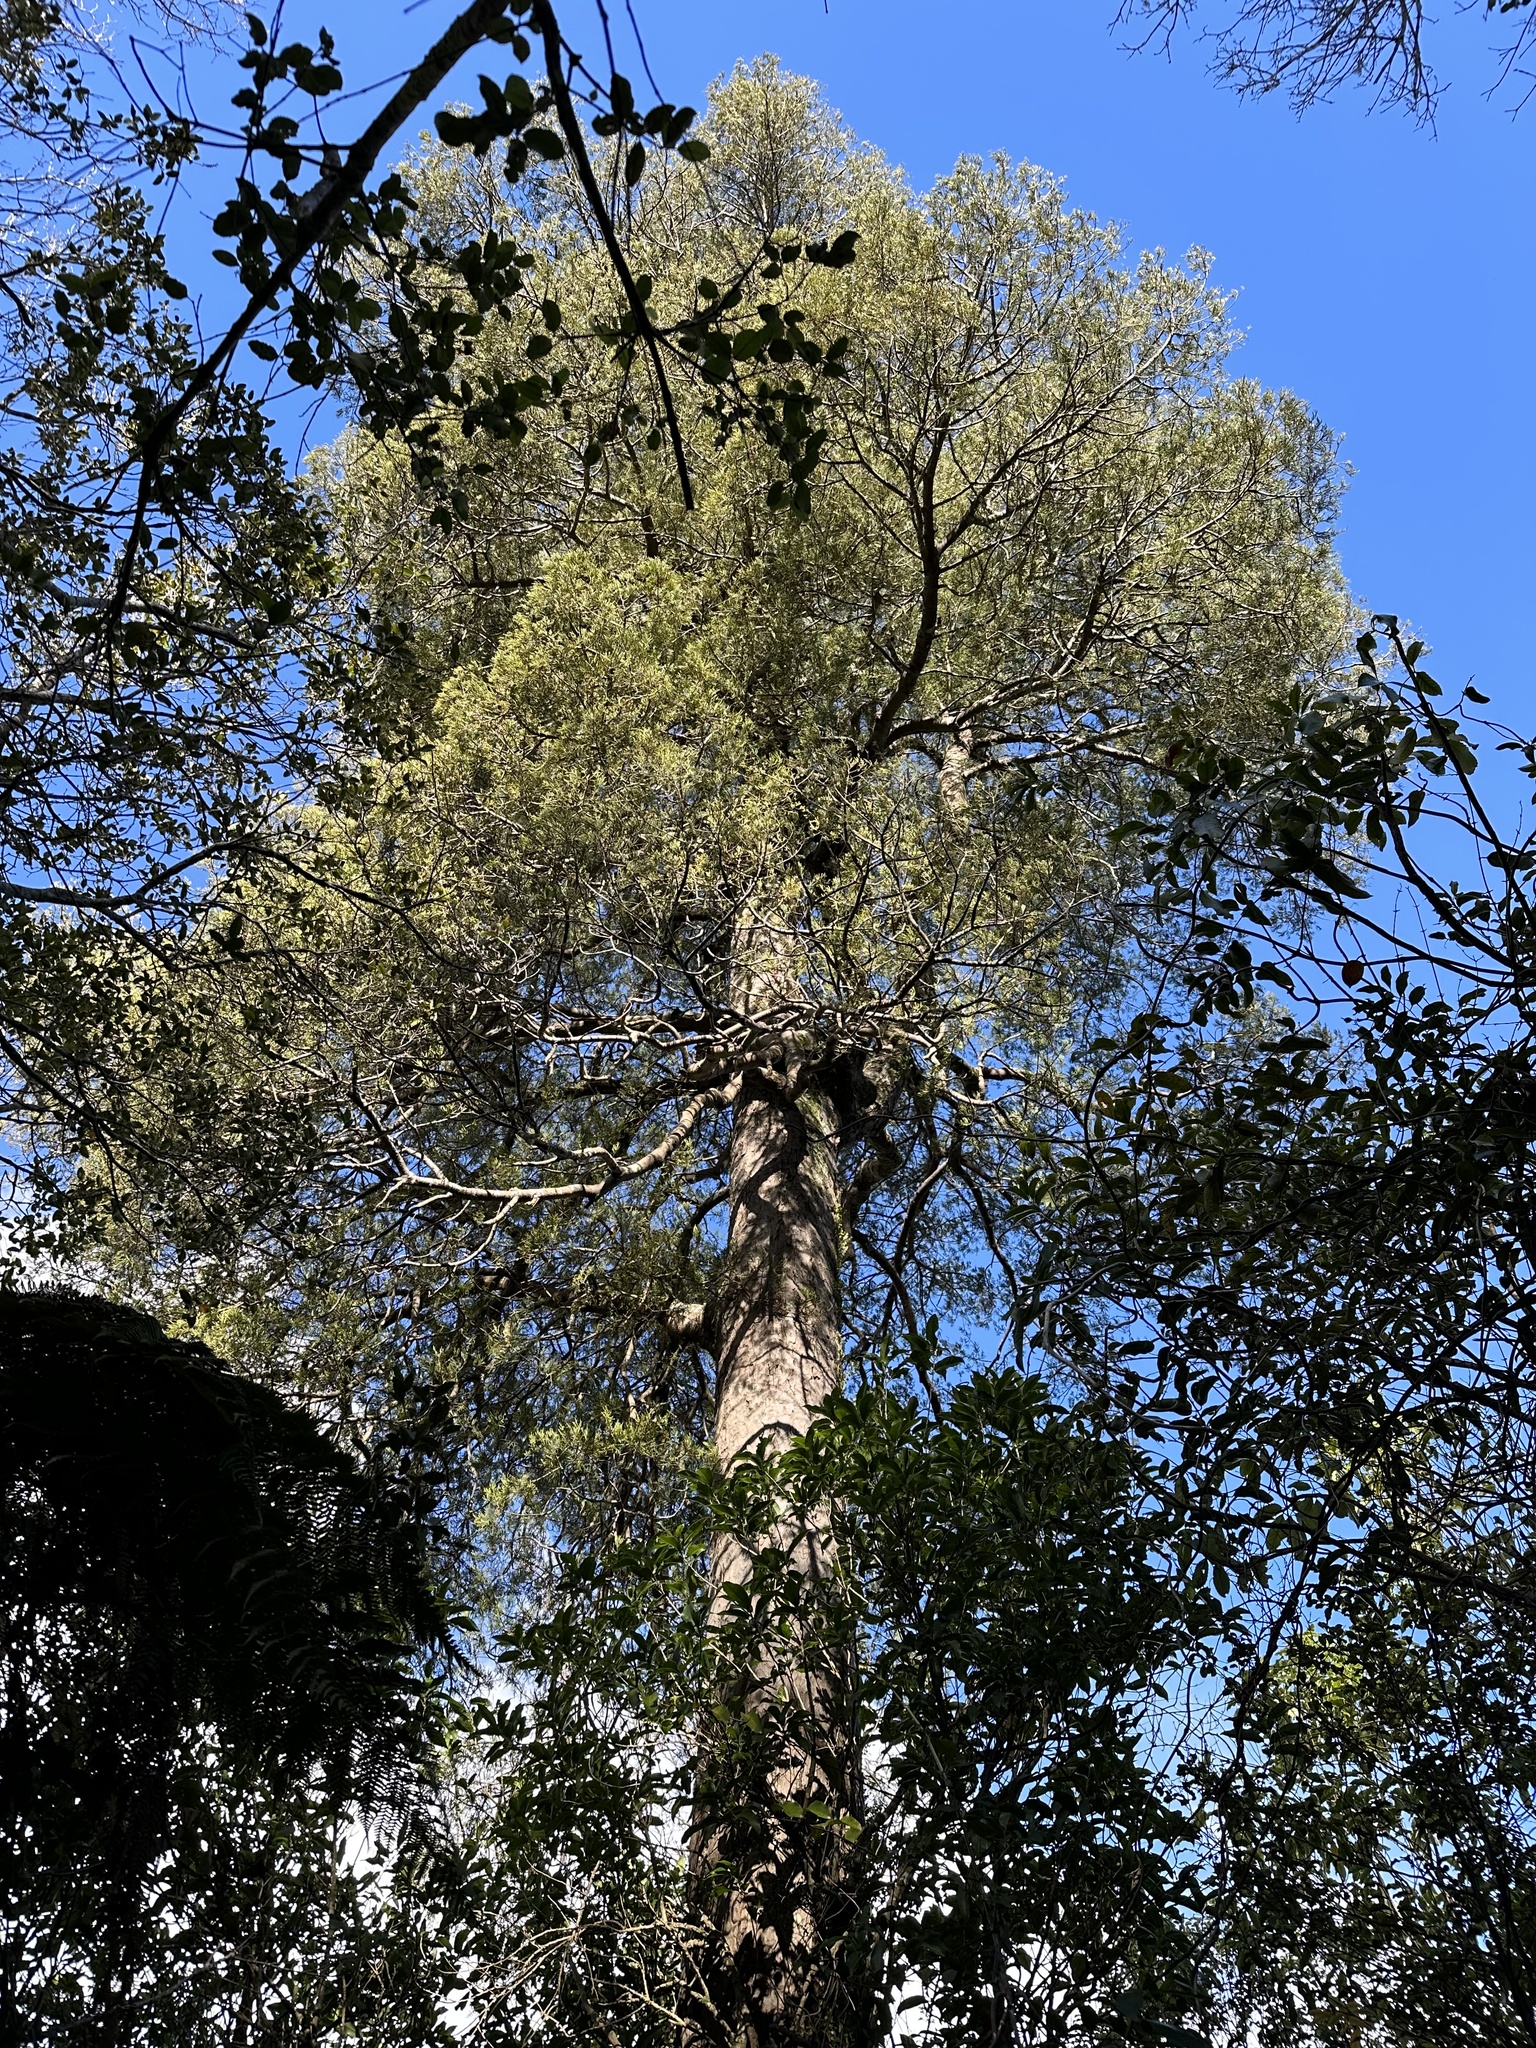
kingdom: Plantae
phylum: Tracheophyta
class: Pinopsida
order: Pinales
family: Podocarpaceae
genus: Dacrycarpus
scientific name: Dacrycarpus dacrydioides
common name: White pine
